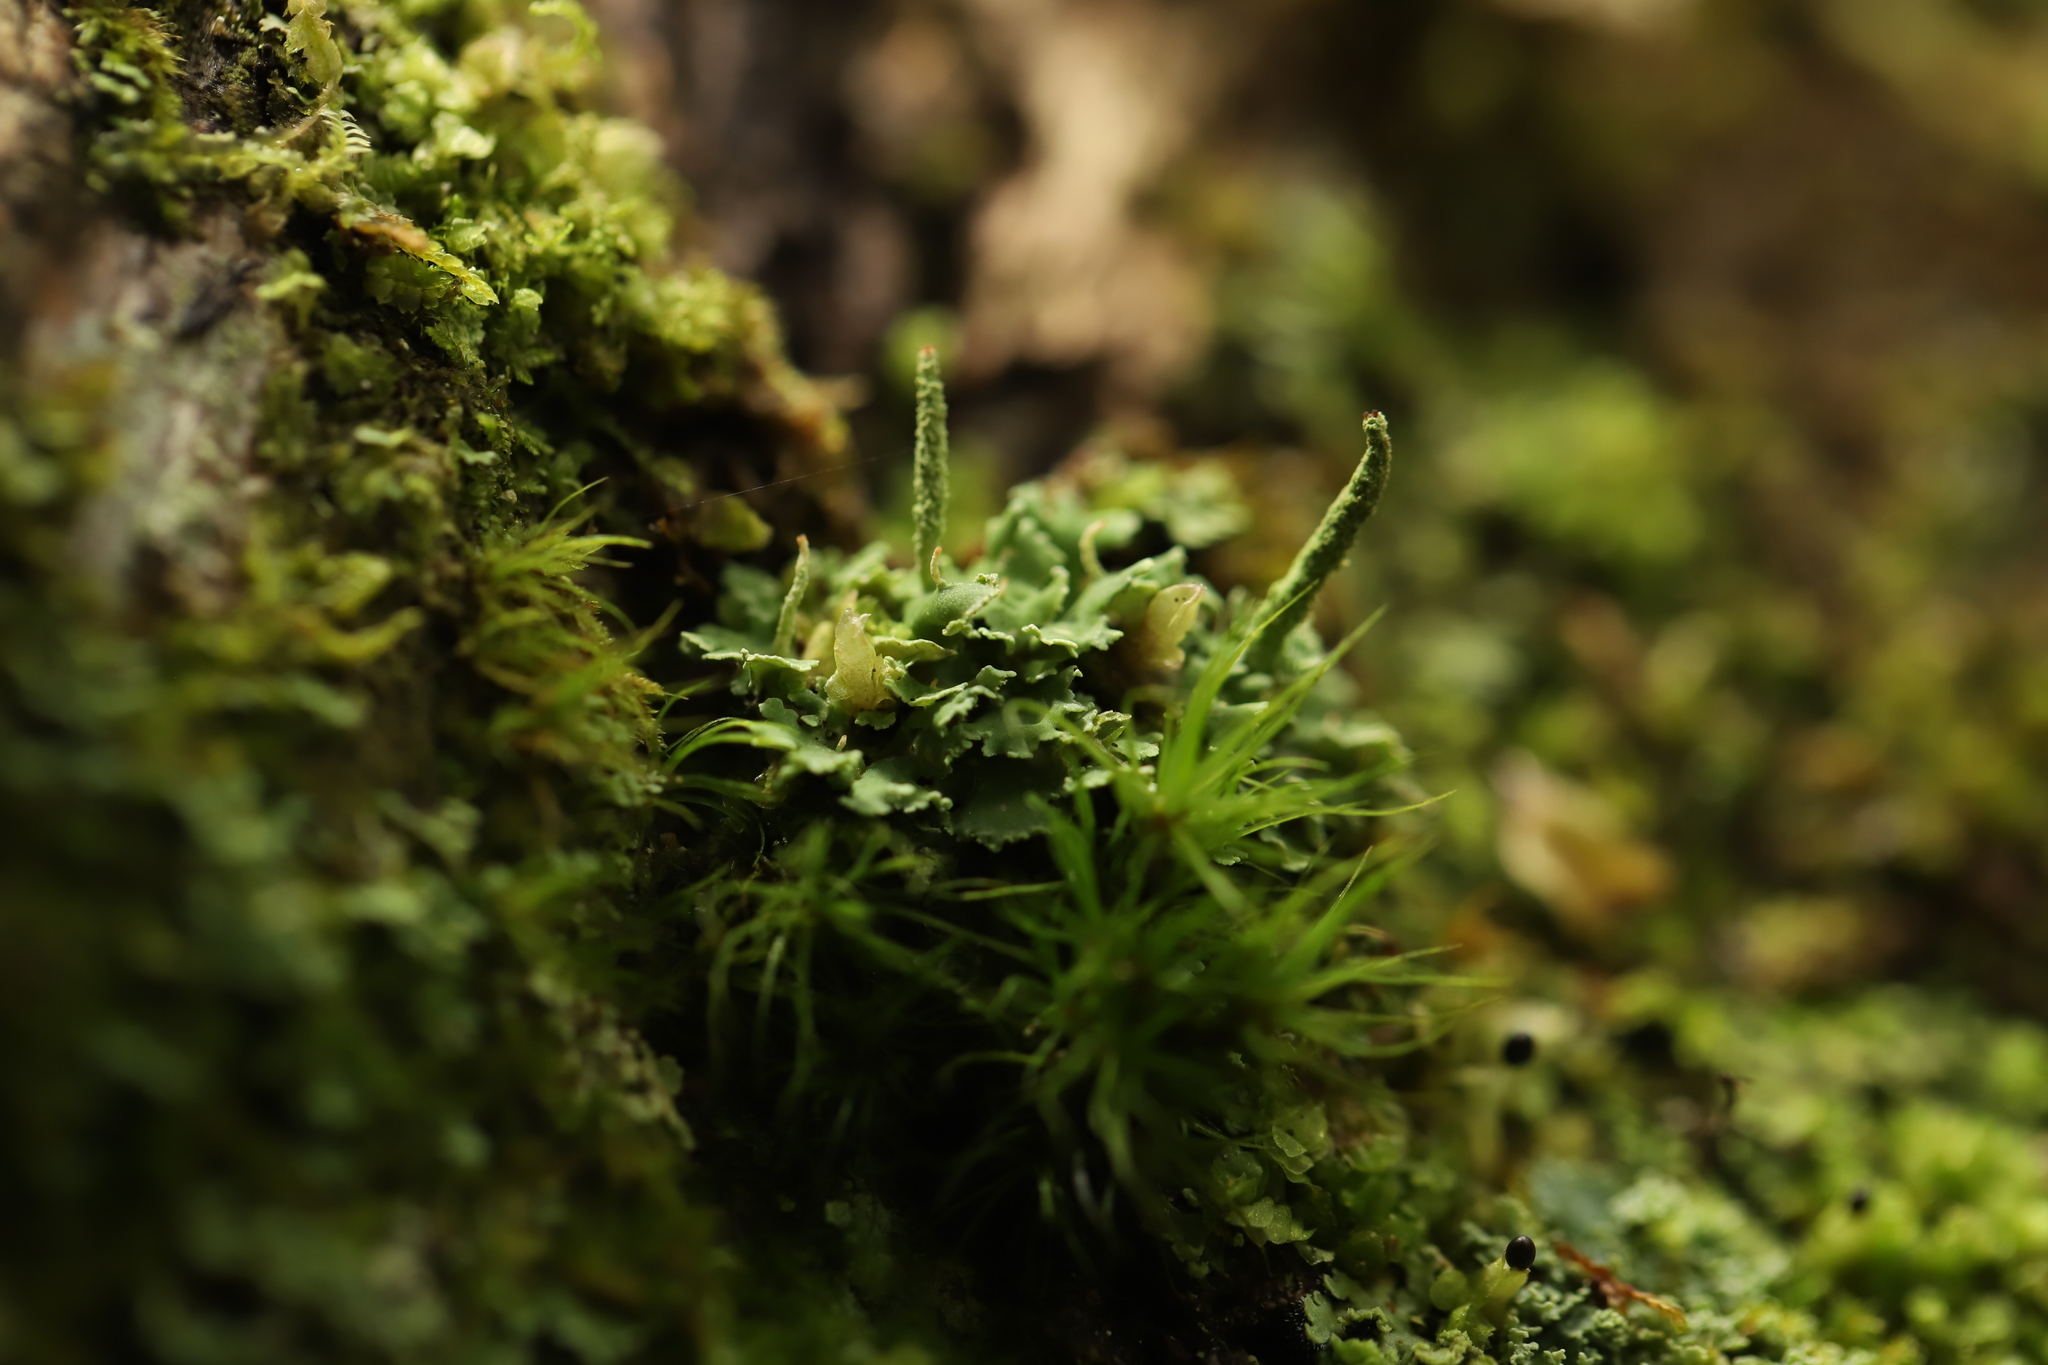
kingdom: Fungi
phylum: Ascomycota
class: Lecanoromycetes
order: Lecanorales
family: Cladoniaceae
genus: Cladonia
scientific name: Cladonia coniocraea
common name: Common powderhorn
